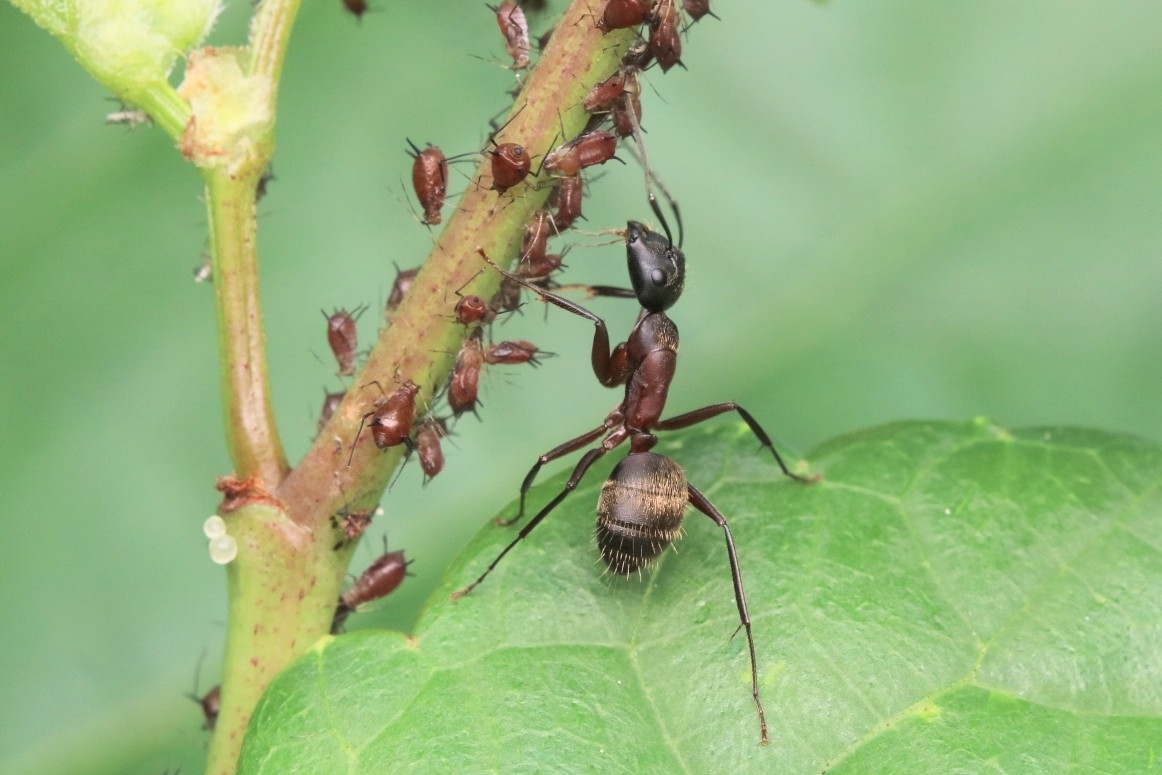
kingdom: Animalia
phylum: Arthropoda
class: Insecta
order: Hymenoptera
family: Formicidae
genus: Camponotus
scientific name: Camponotus chromaiodes
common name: Red carpenter ant
